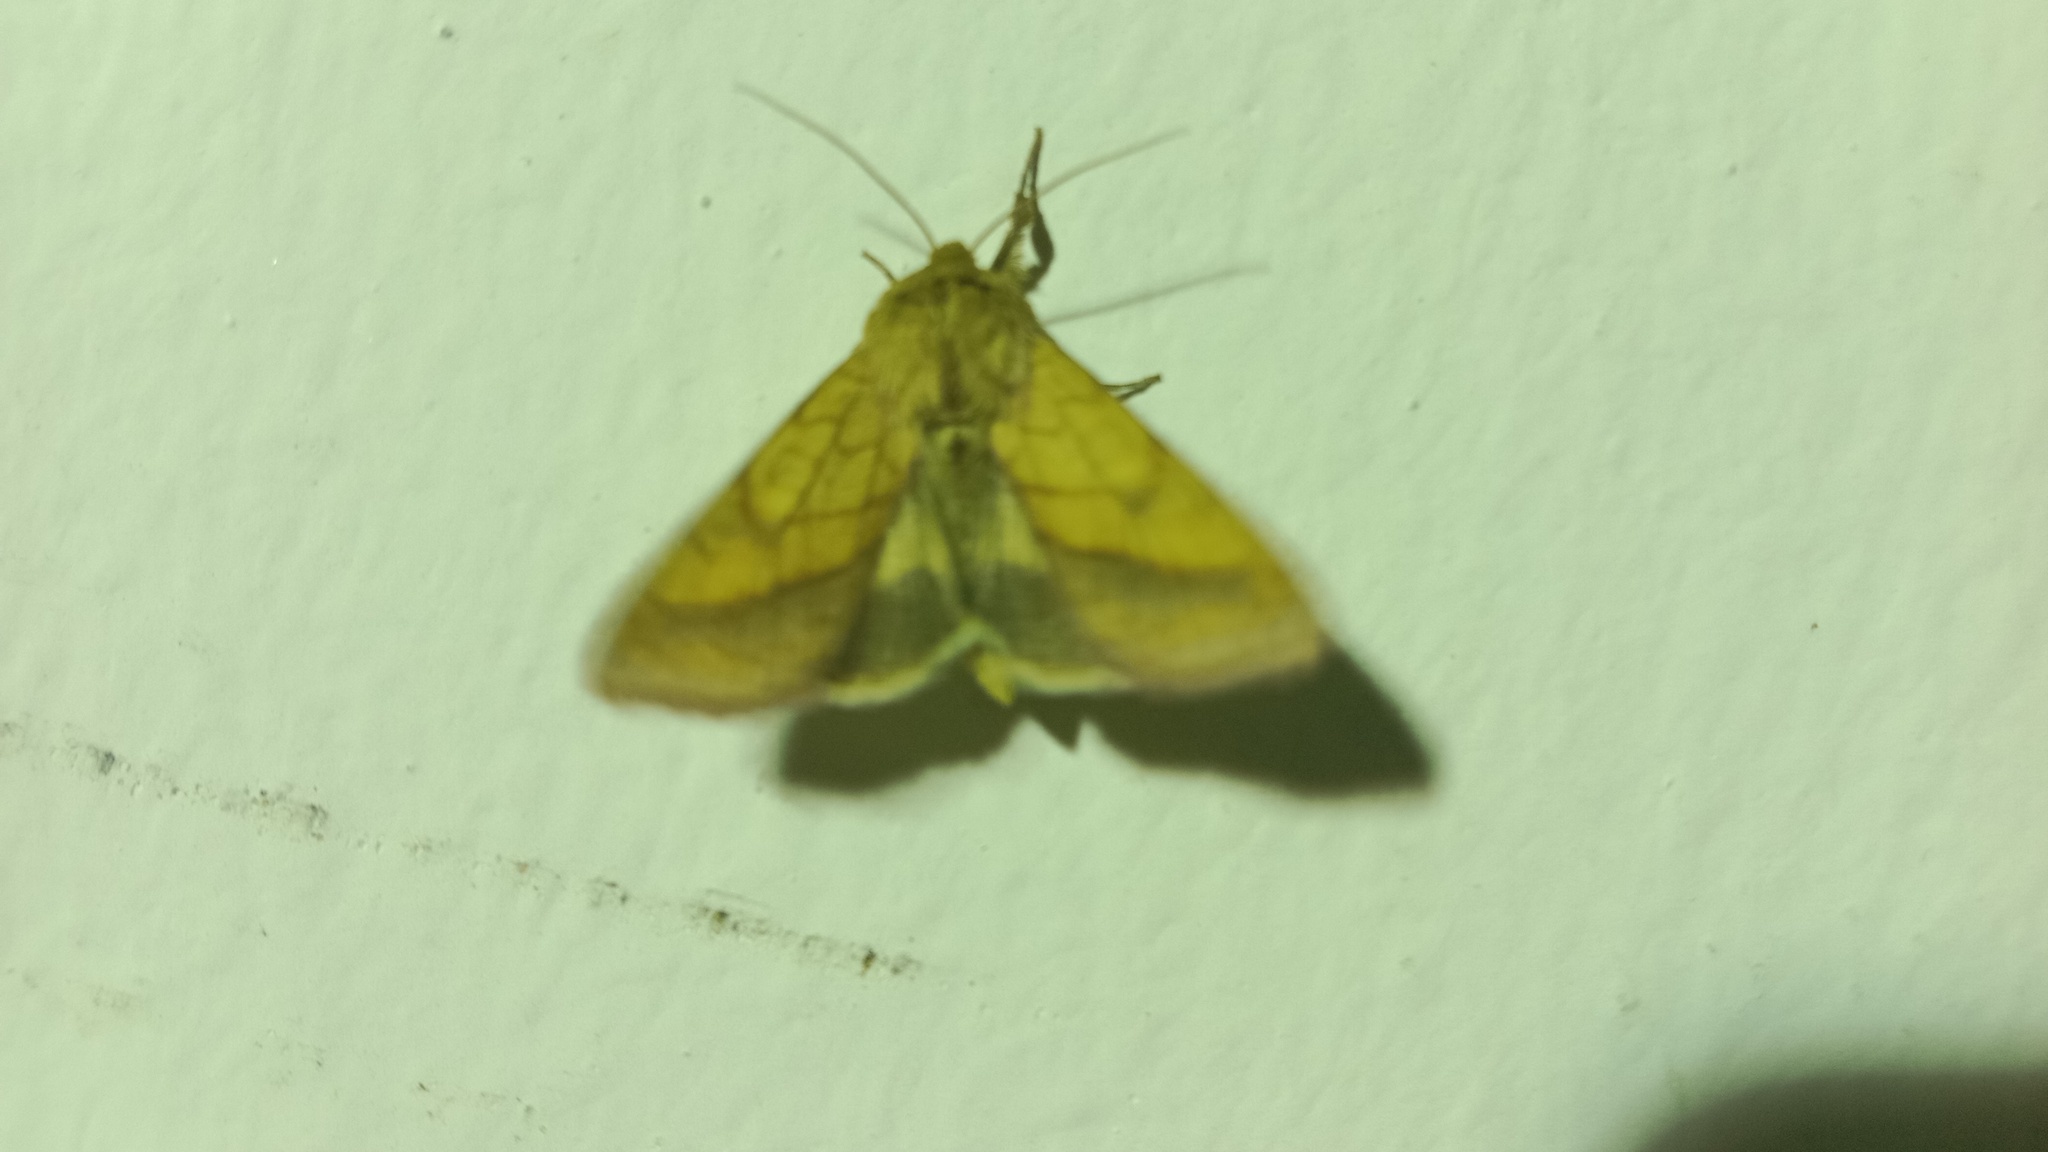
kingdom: Animalia
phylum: Arthropoda
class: Insecta
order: Lepidoptera
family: Noctuidae
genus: Pyrrhia
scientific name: Pyrrhia umbra
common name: Bordered sallow
